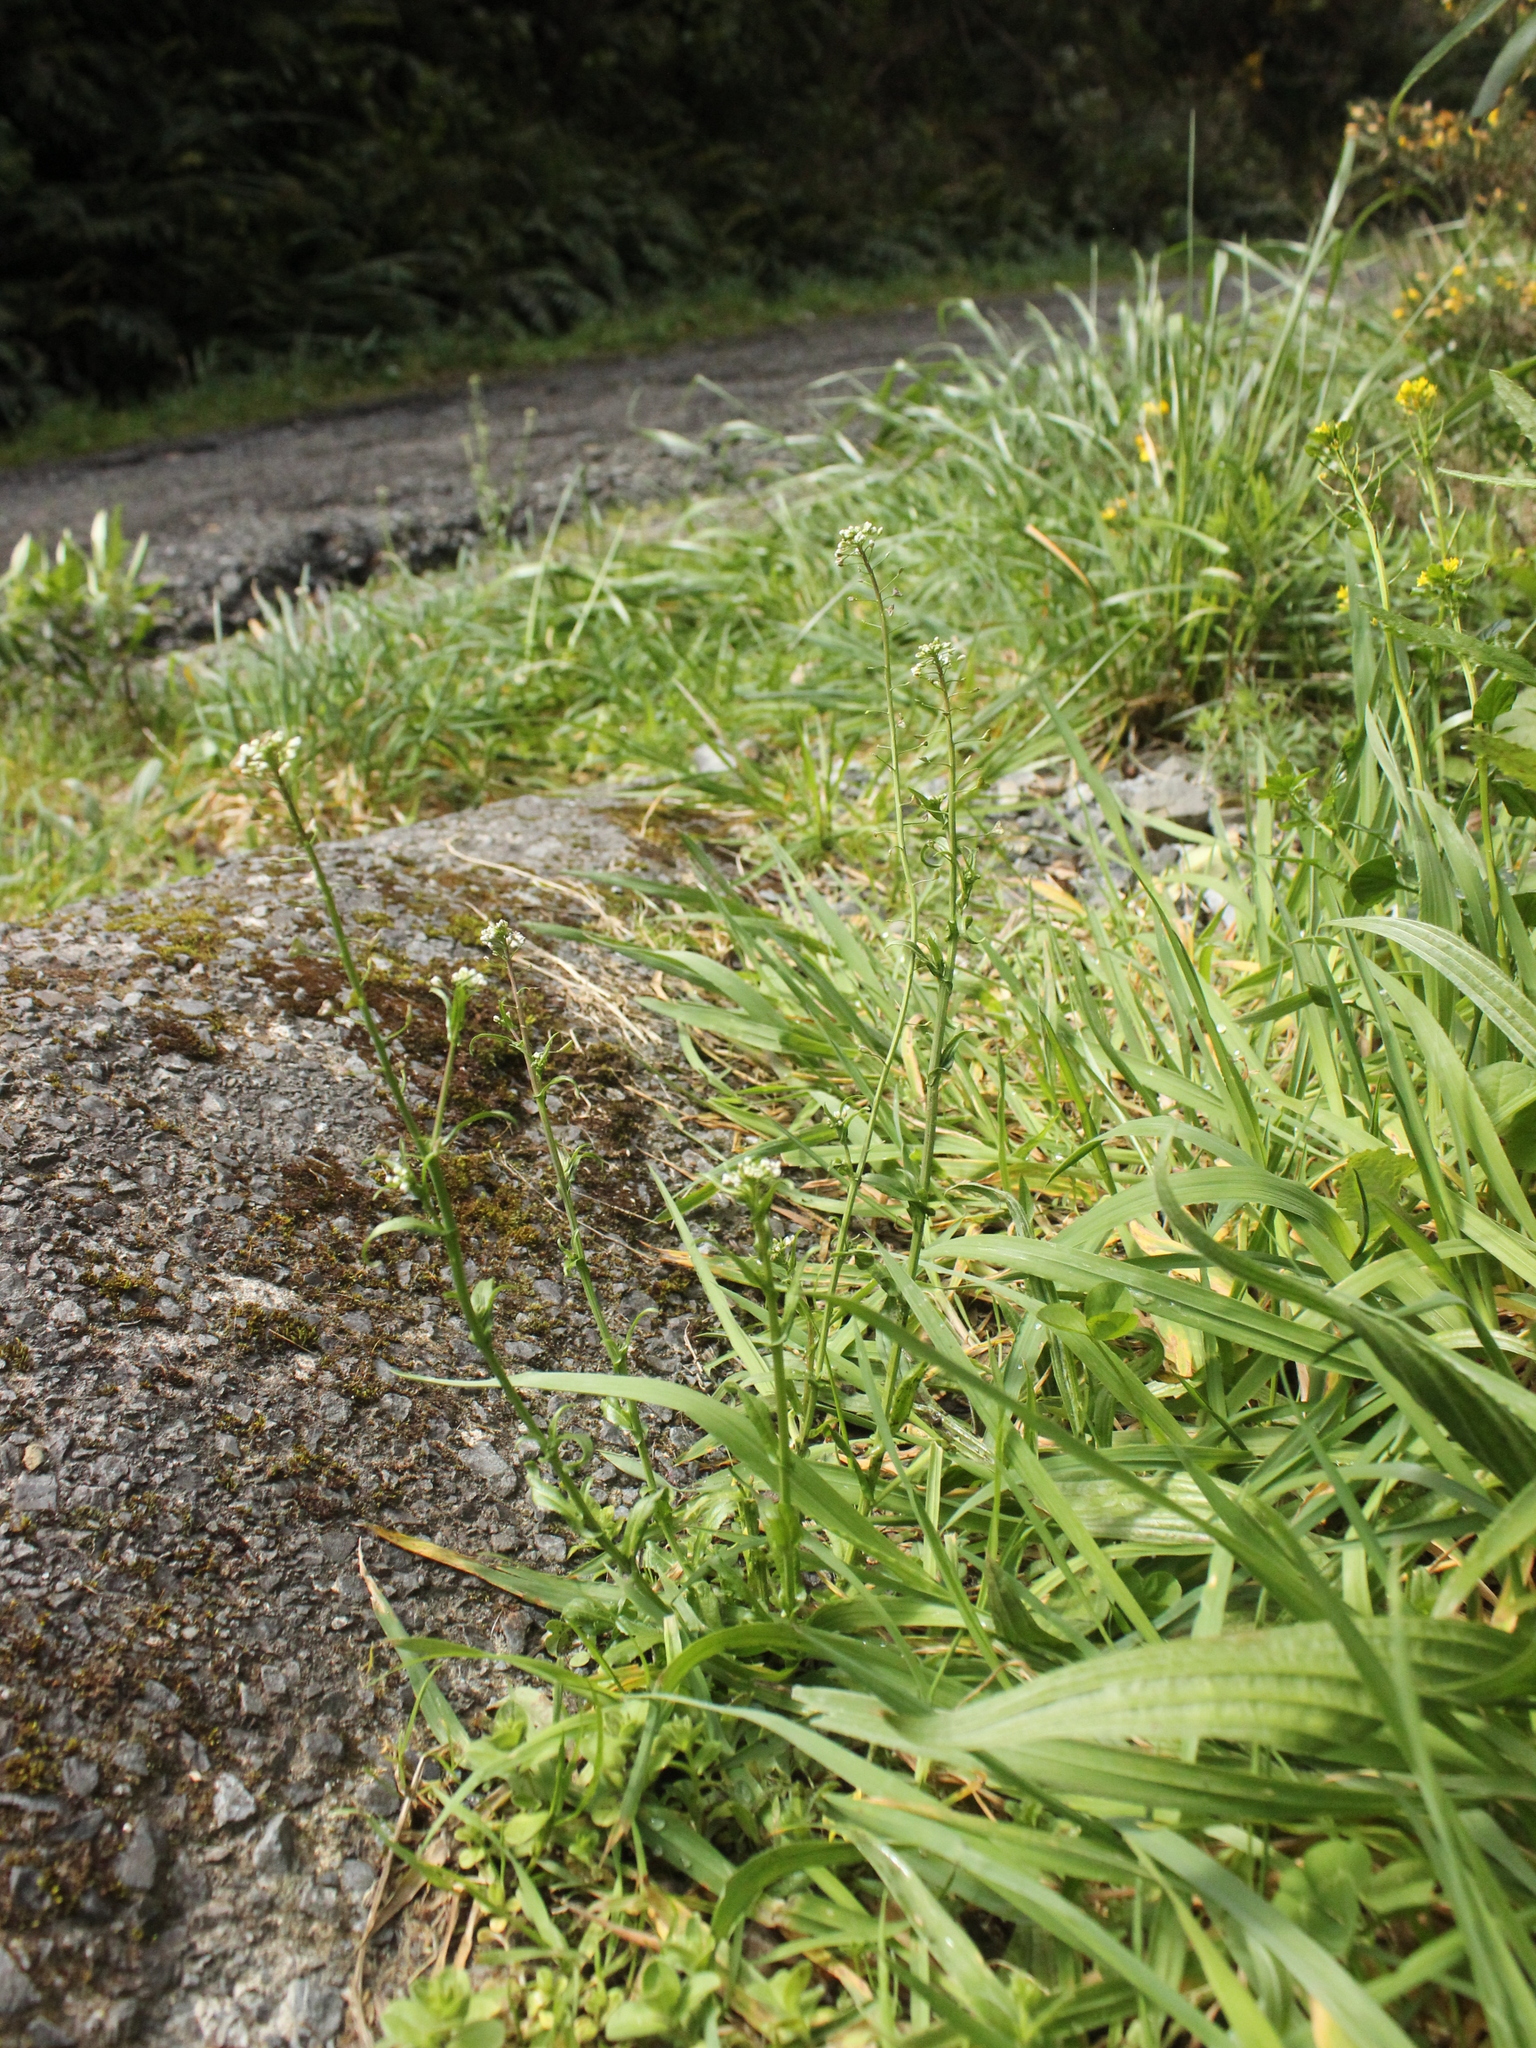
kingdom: Plantae
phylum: Tracheophyta
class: Magnoliopsida
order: Brassicales
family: Brassicaceae
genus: Sisymbrium
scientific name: Sisymbrium officinale
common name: Hedge mustard
